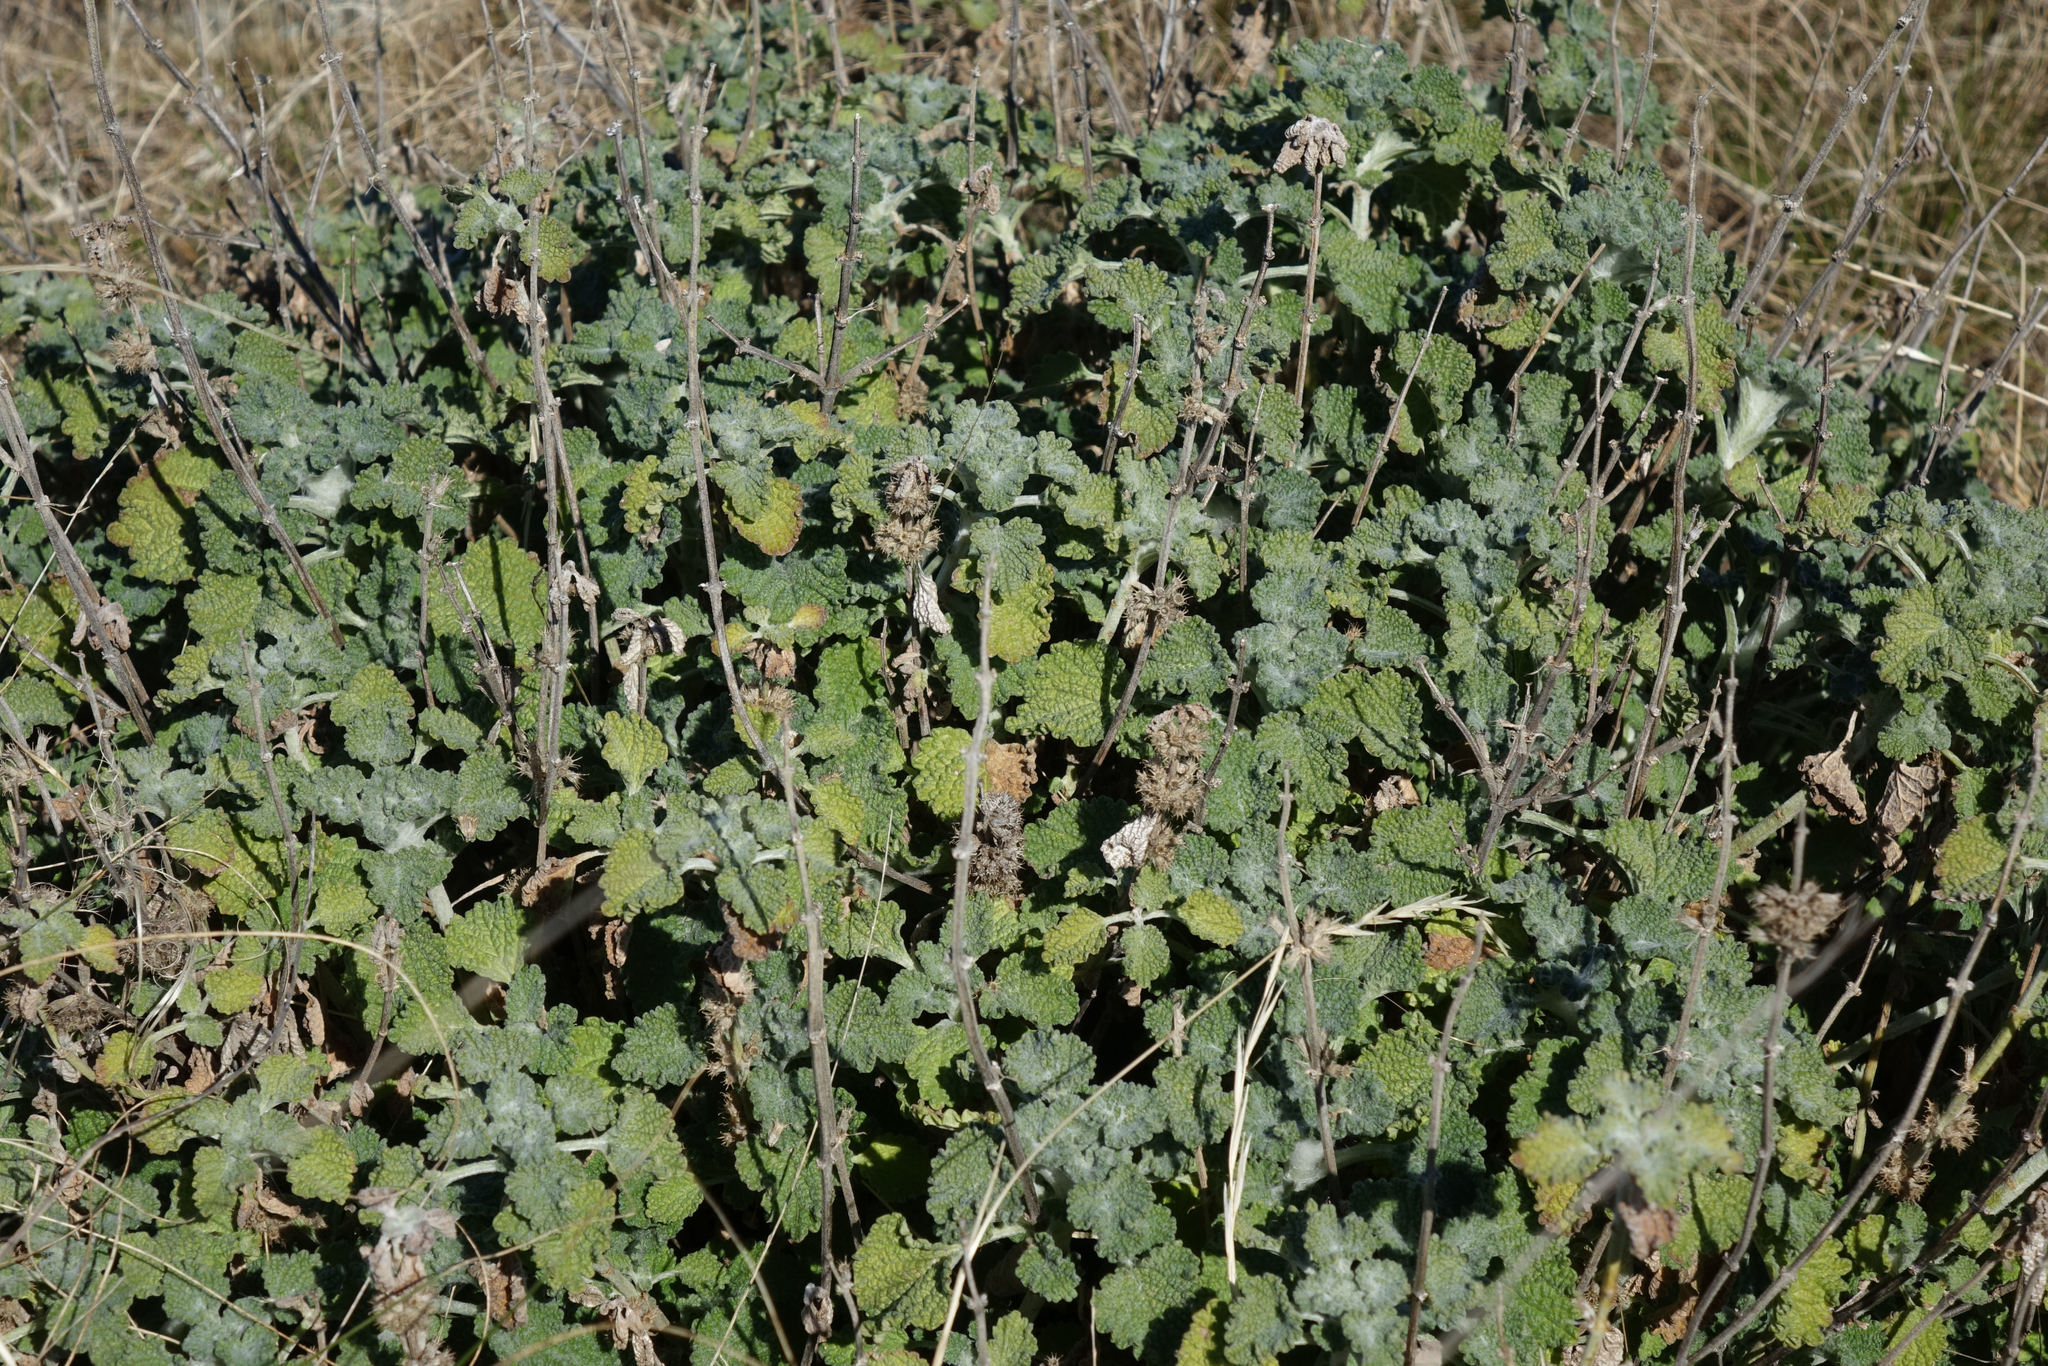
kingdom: Plantae
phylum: Tracheophyta
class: Magnoliopsida
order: Lamiales
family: Lamiaceae
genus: Marrubium
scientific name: Marrubium vulgare
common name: Horehound
